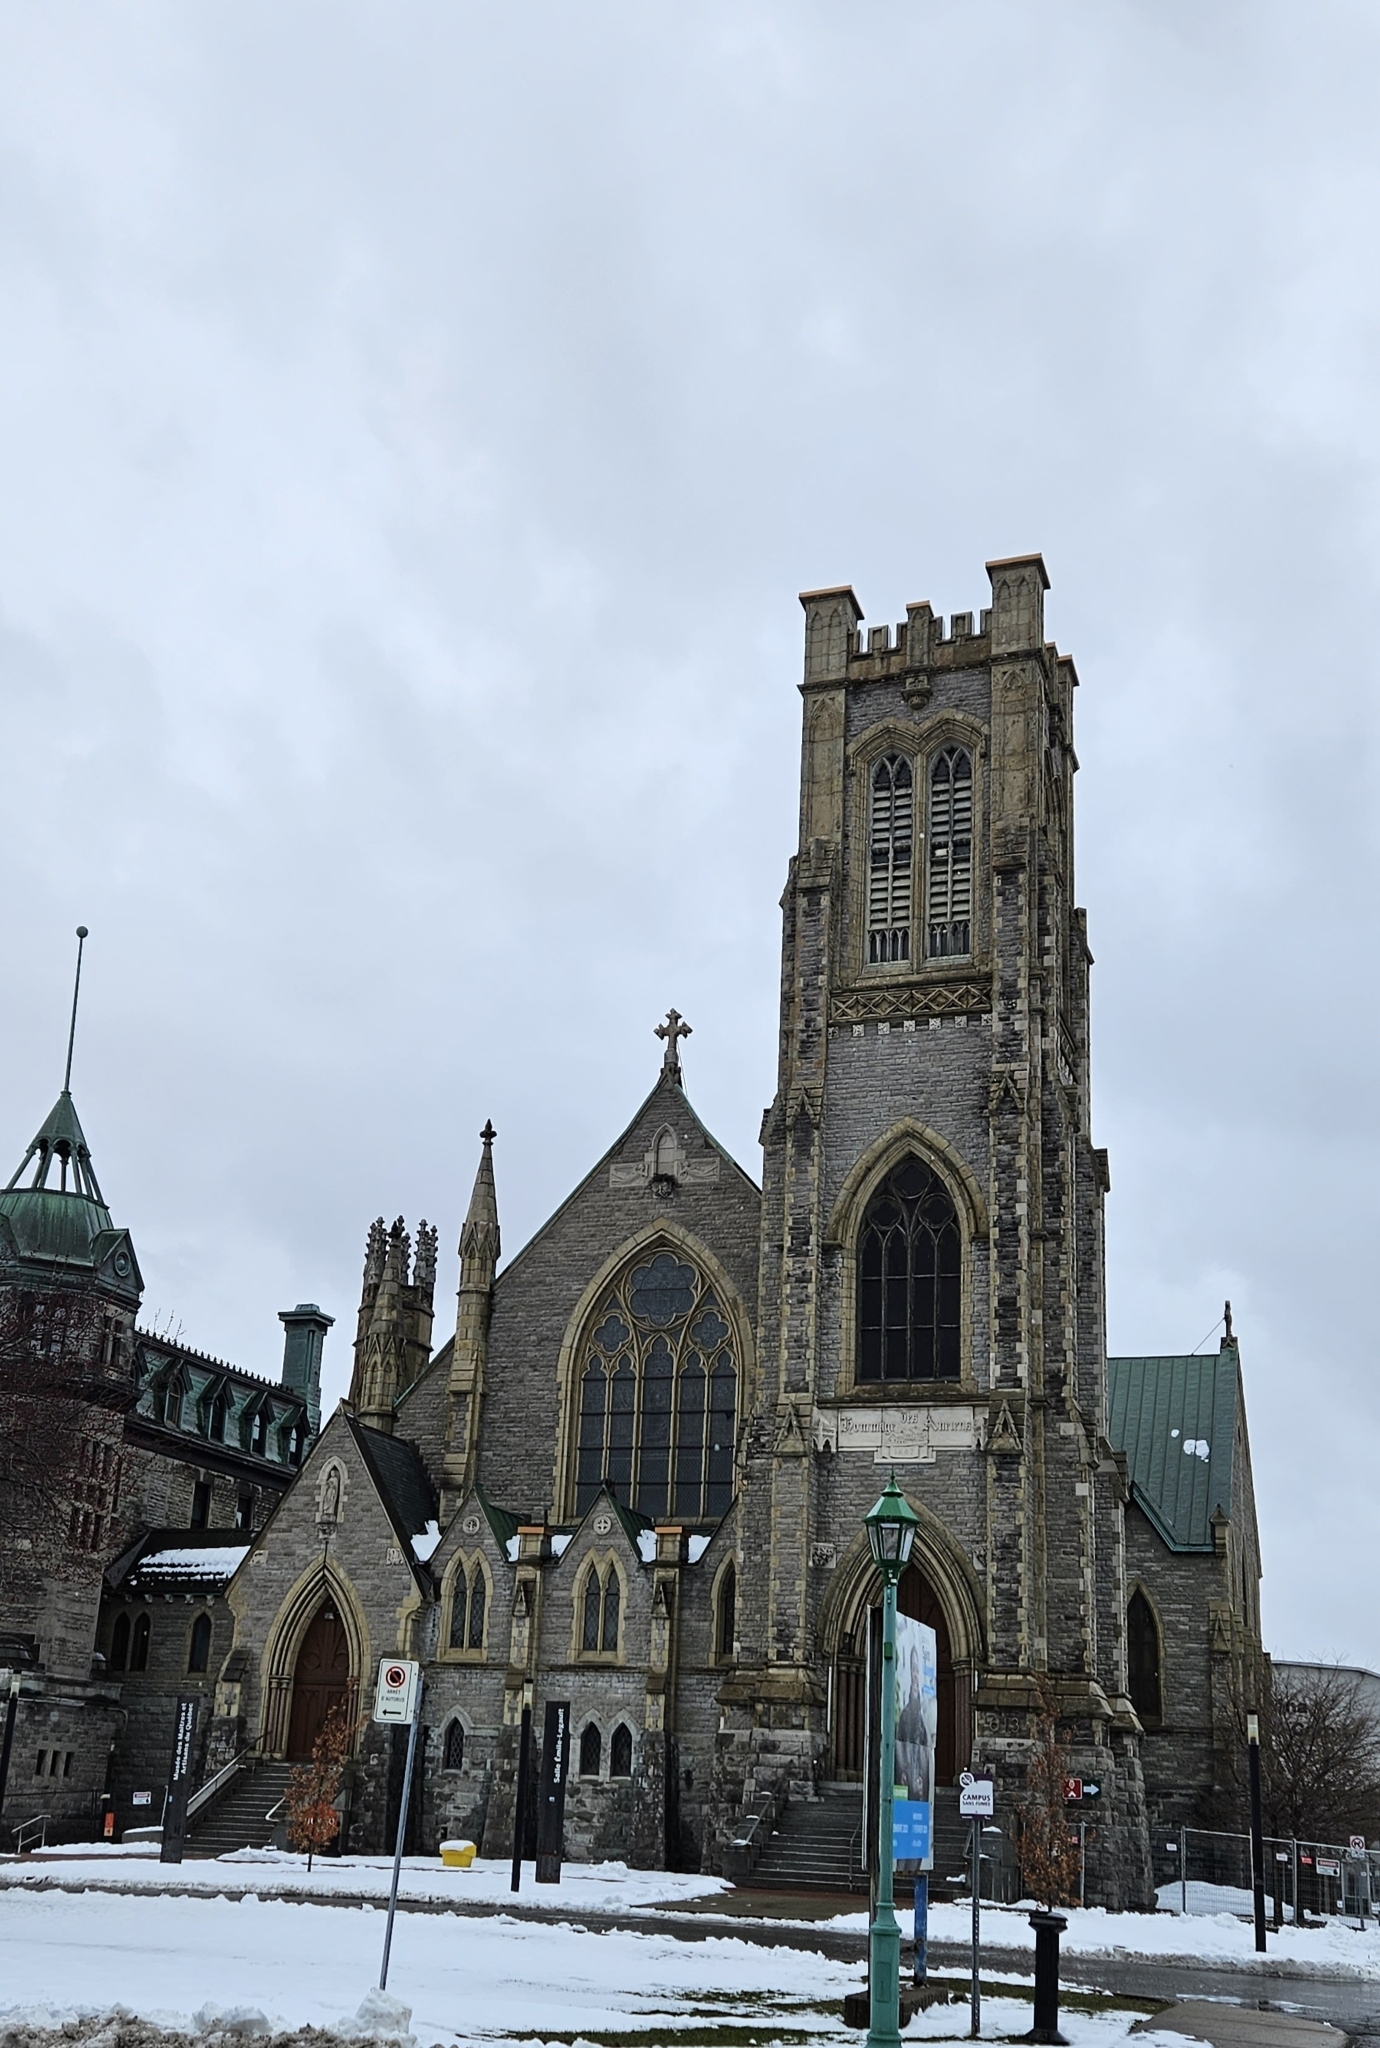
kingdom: Animalia
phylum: Chordata
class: Aves
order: Passeriformes
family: Corvidae
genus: Corvus
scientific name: Corvus corax
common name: Common raven
